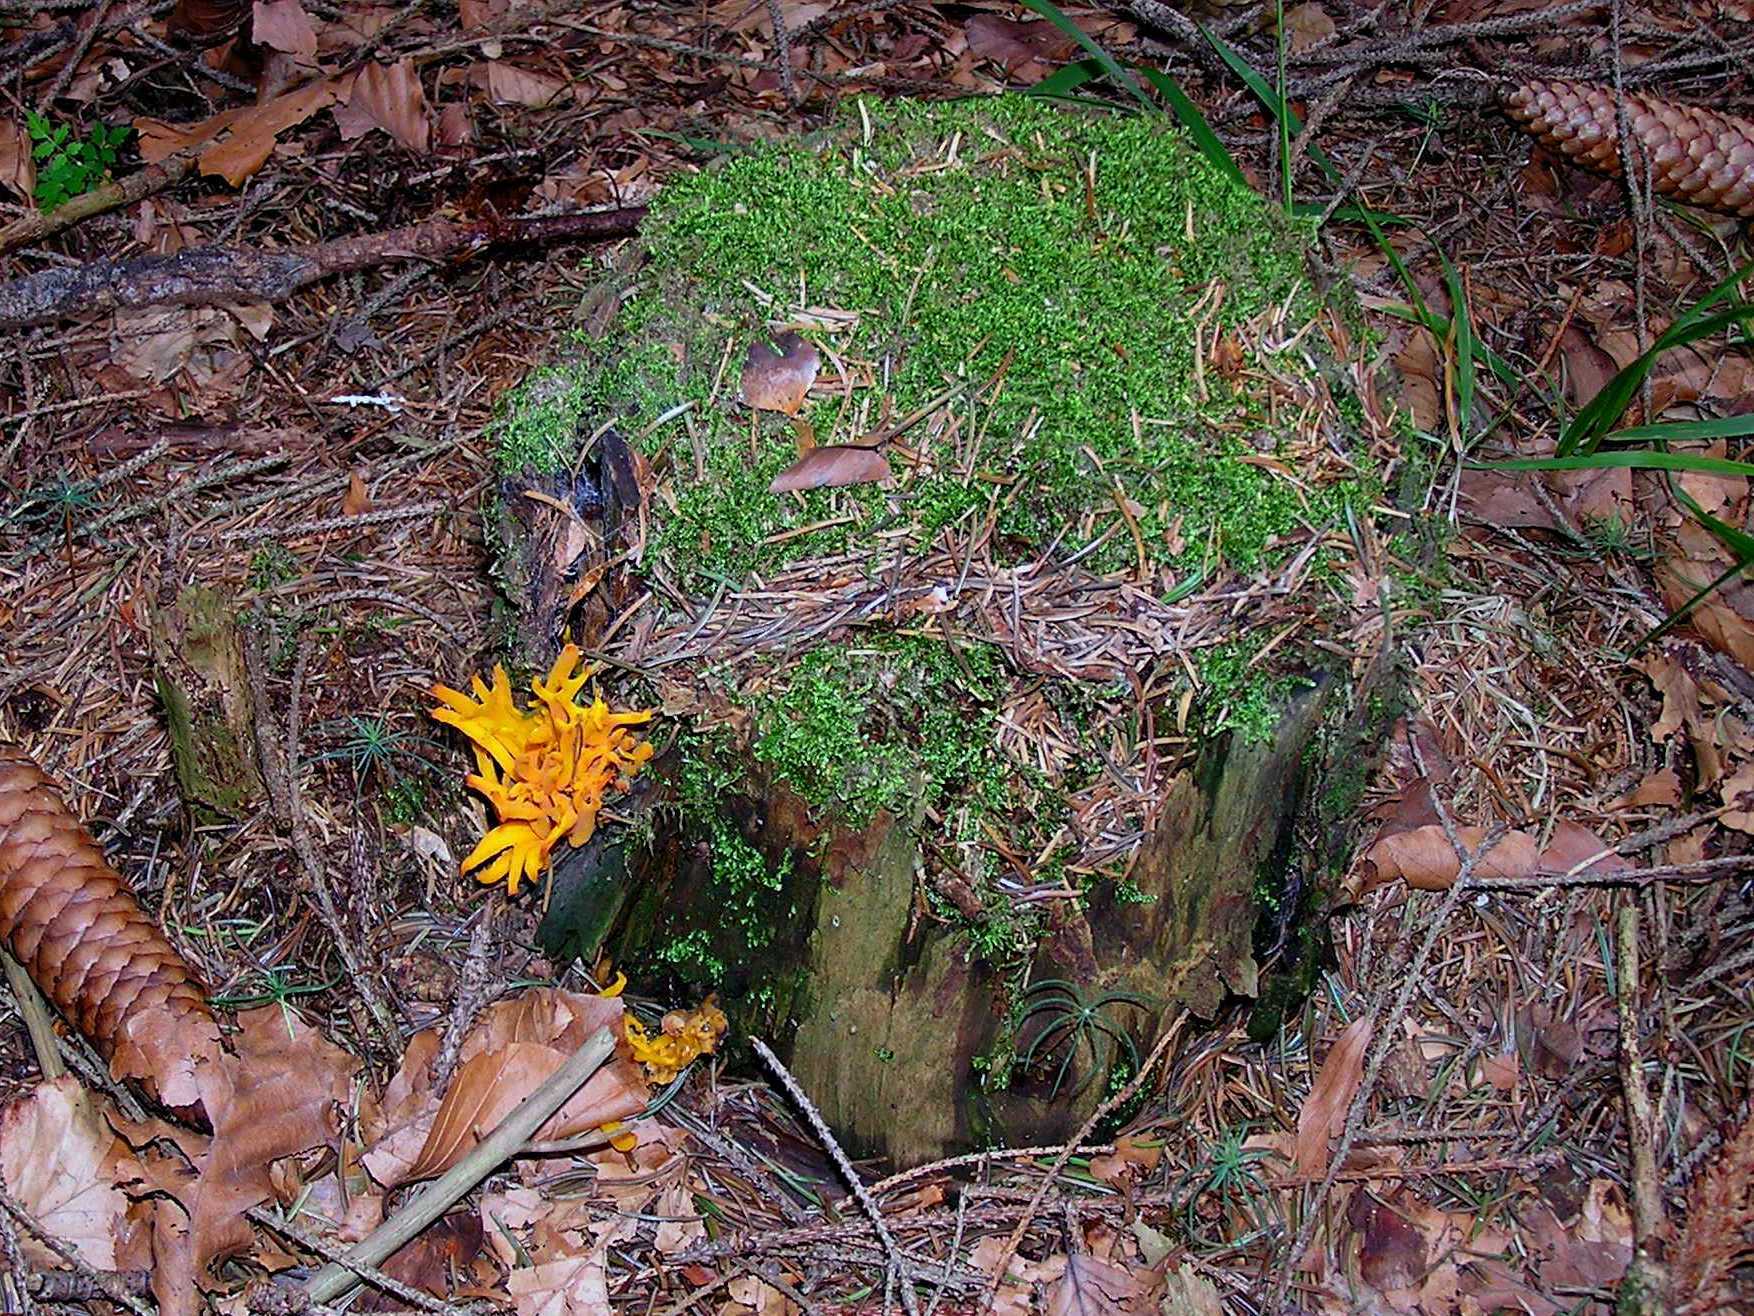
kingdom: Fungi
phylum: Basidiomycota
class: Dacrymycetes
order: Dacrymycetales
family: Dacrymycetaceae
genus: Calocera
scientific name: Calocera viscosa
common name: Yellow stagshorn
